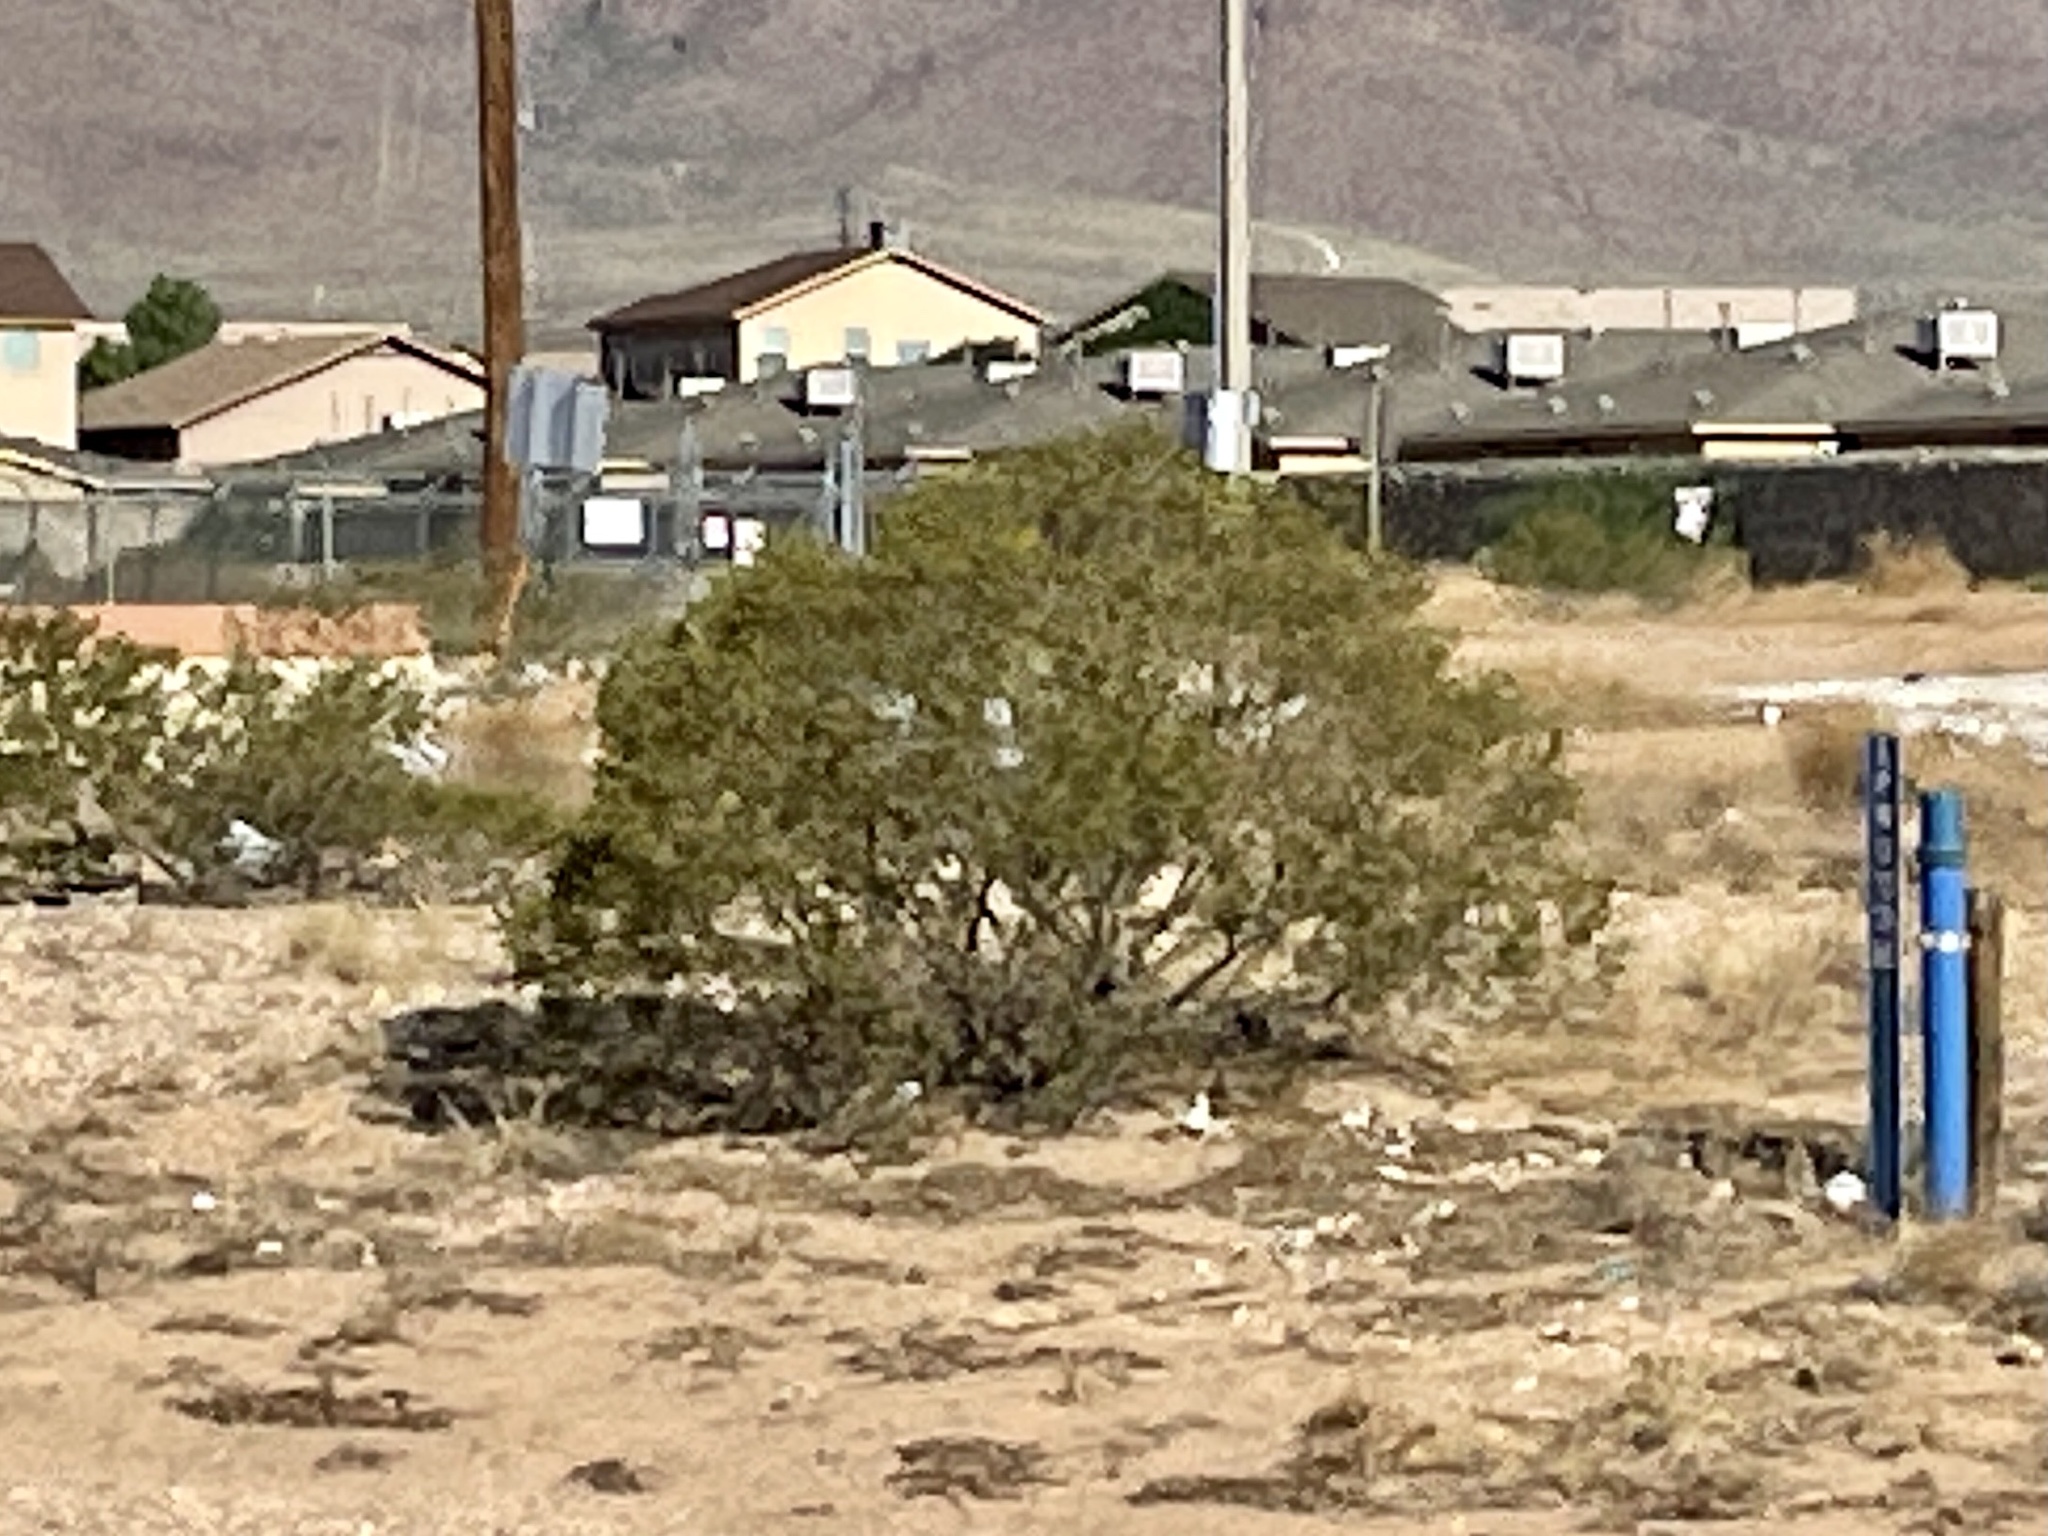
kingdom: Plantae
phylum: Tracheophyta
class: Magnoliopsida
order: Zygophyllales
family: Zygophyllaceae
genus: Larrea
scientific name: Larrea tridentata
